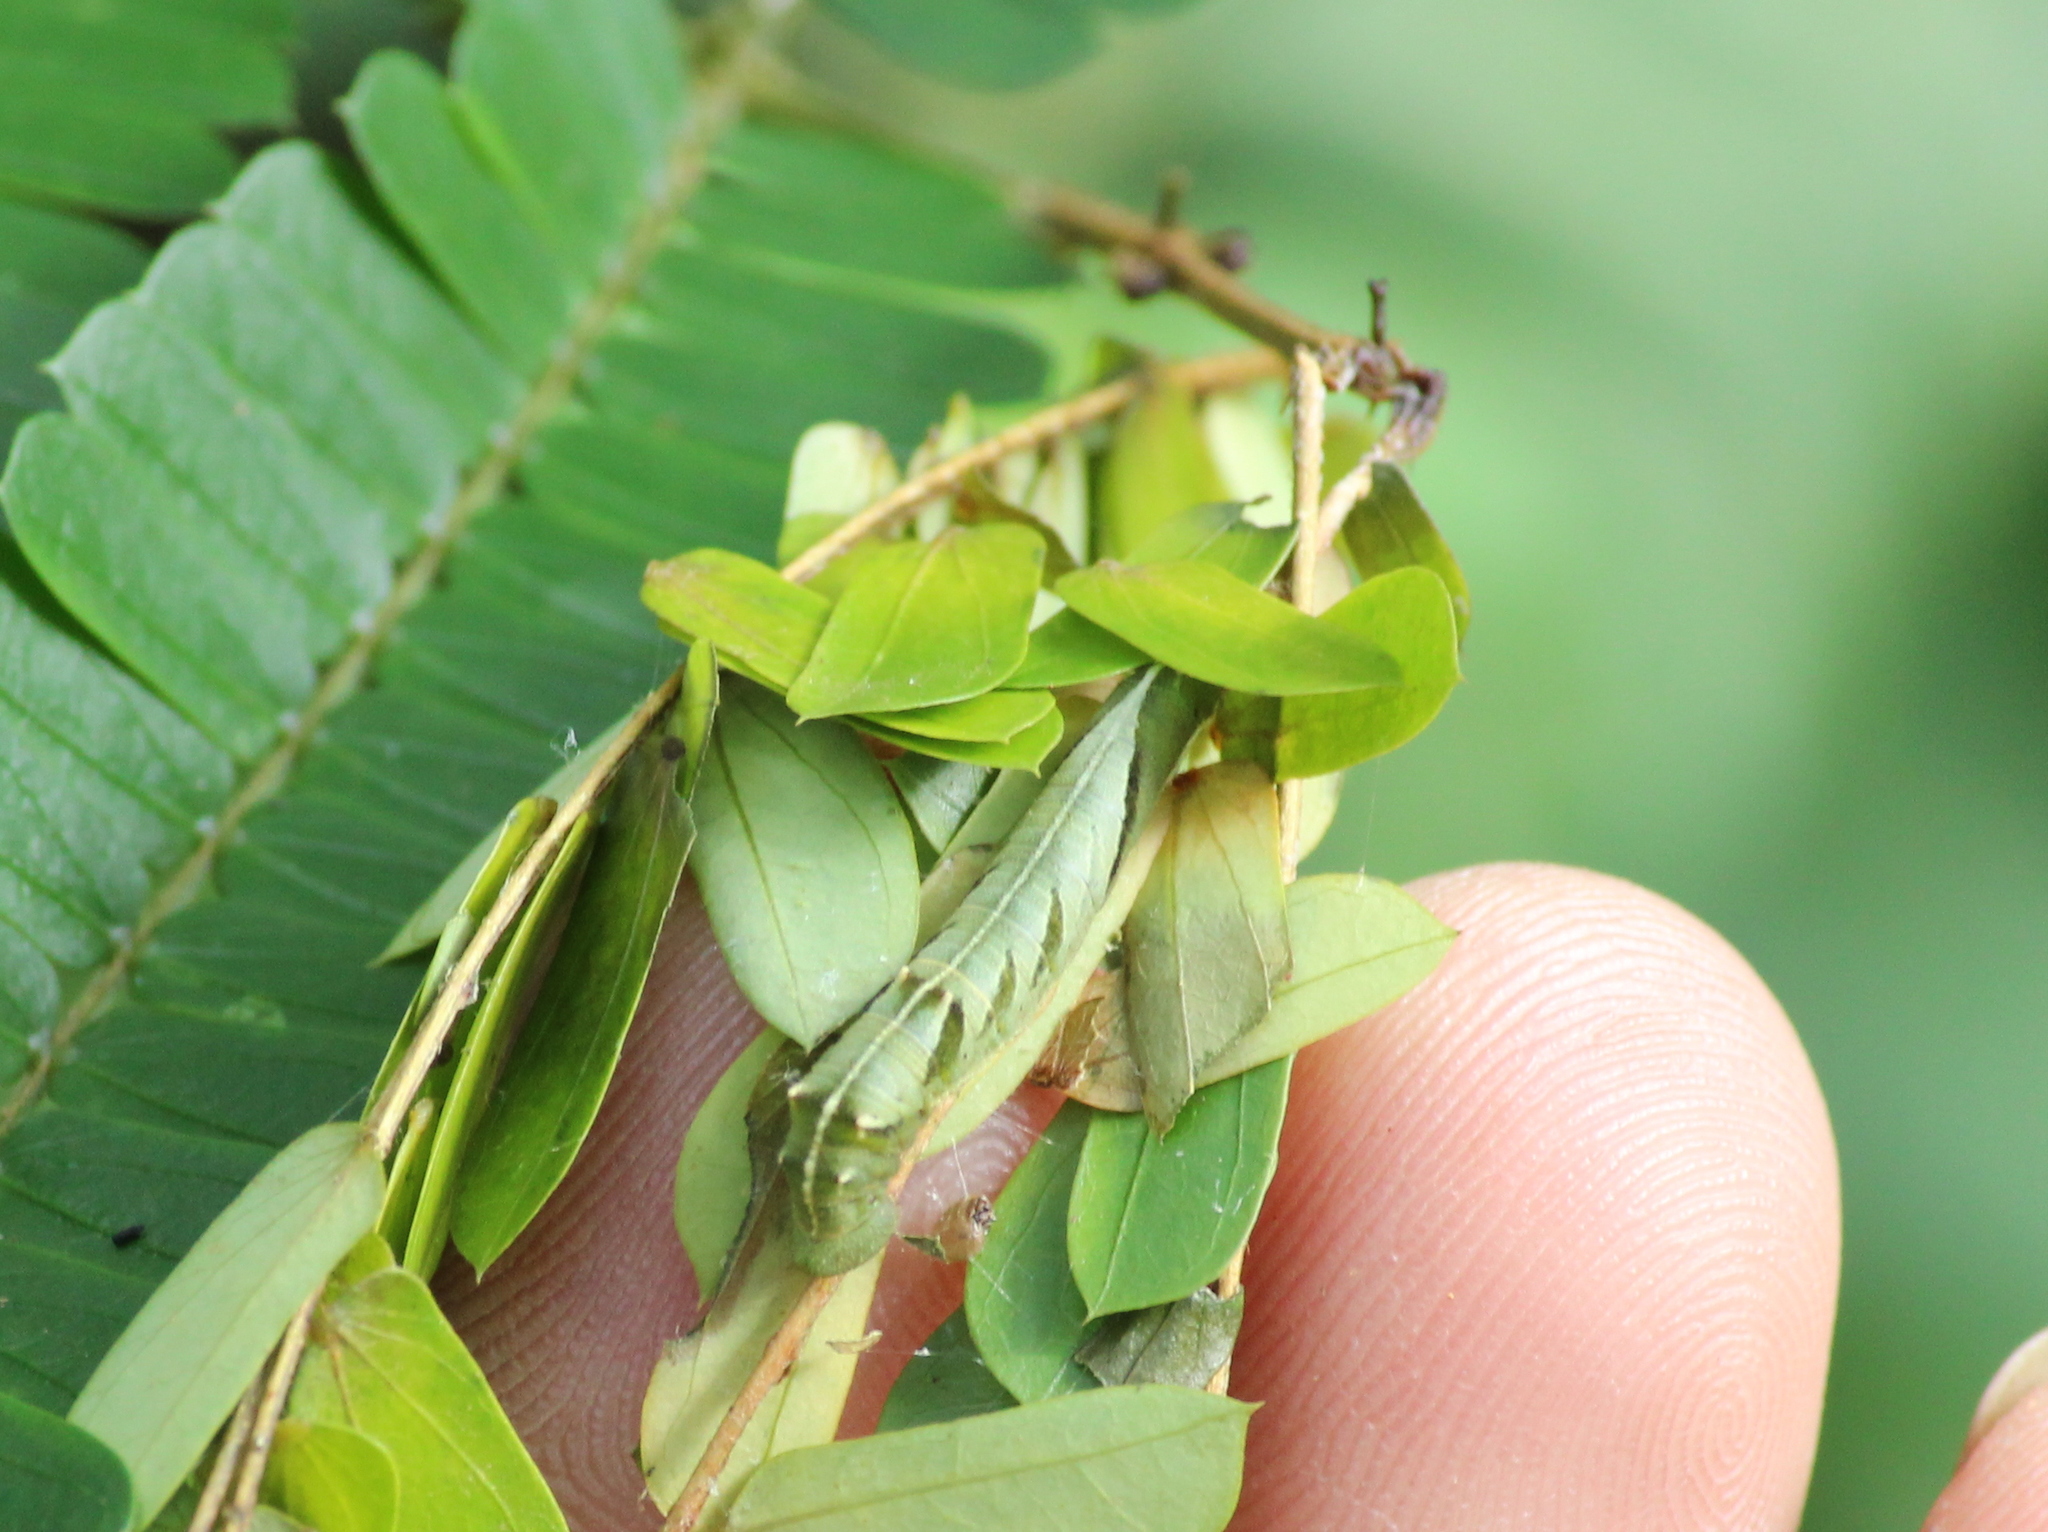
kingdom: Animalia
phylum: Arthropoda
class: Insecta
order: Lepidoptera
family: Nymphalidae
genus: Pantoporia
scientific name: Pantoporia hordonia
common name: Common lascar
